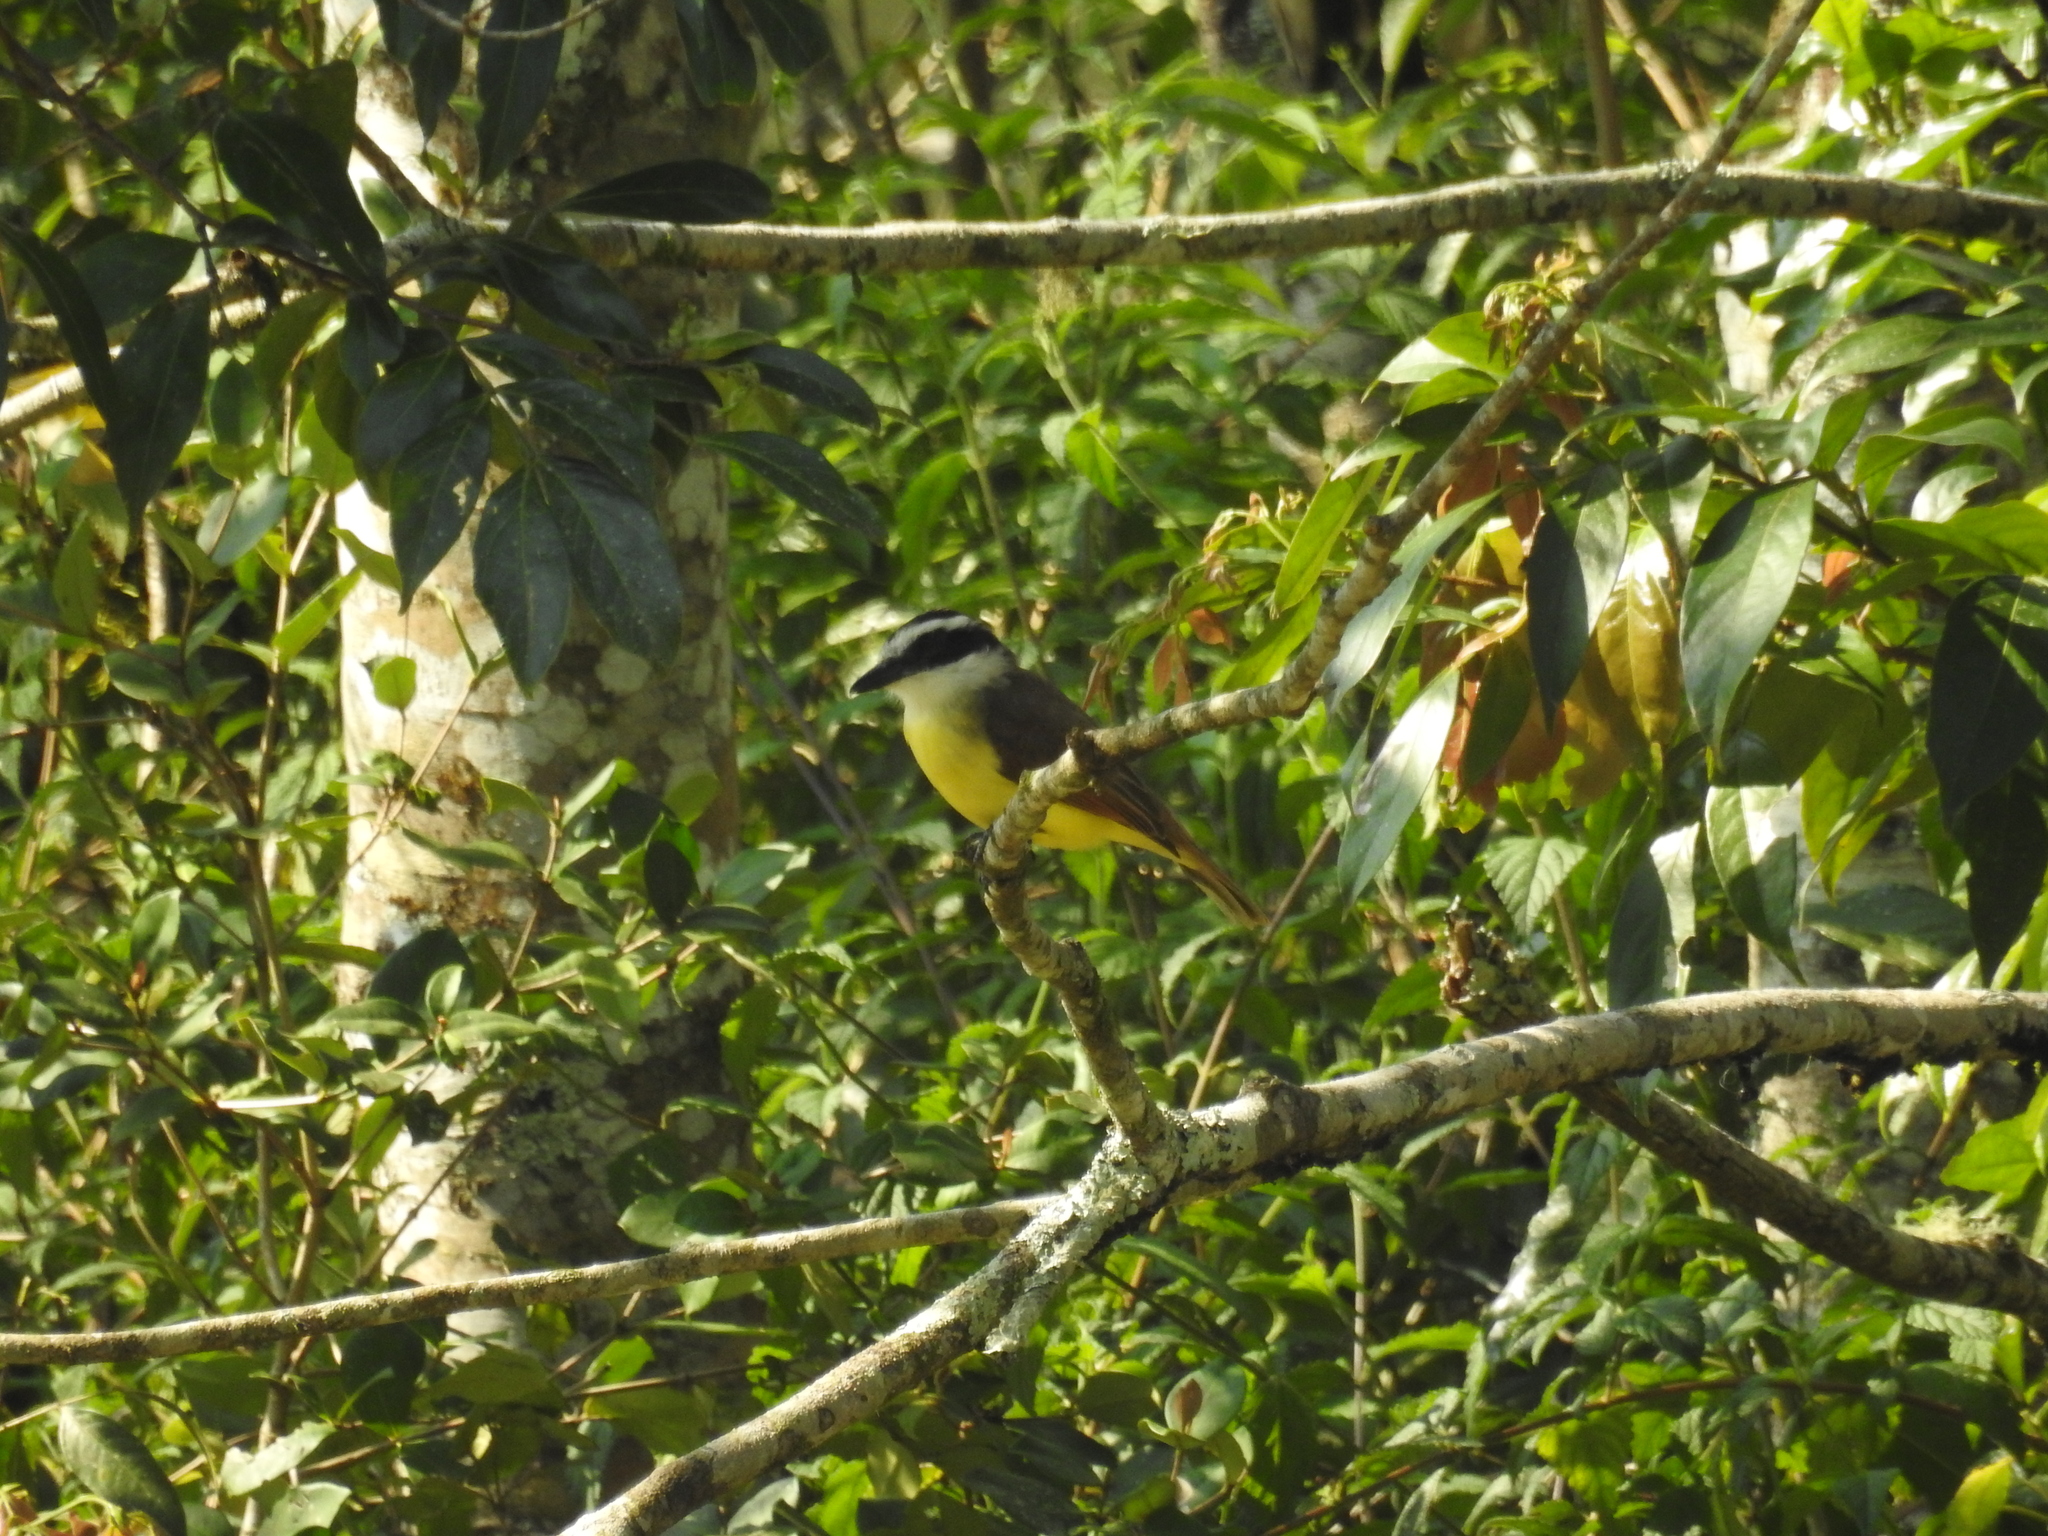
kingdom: Animalia
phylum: Chordata
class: Aves
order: Passeriformes
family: Tyrannidae
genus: Pitangus
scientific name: Pitangus sulphuratus
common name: Great kiskadee
